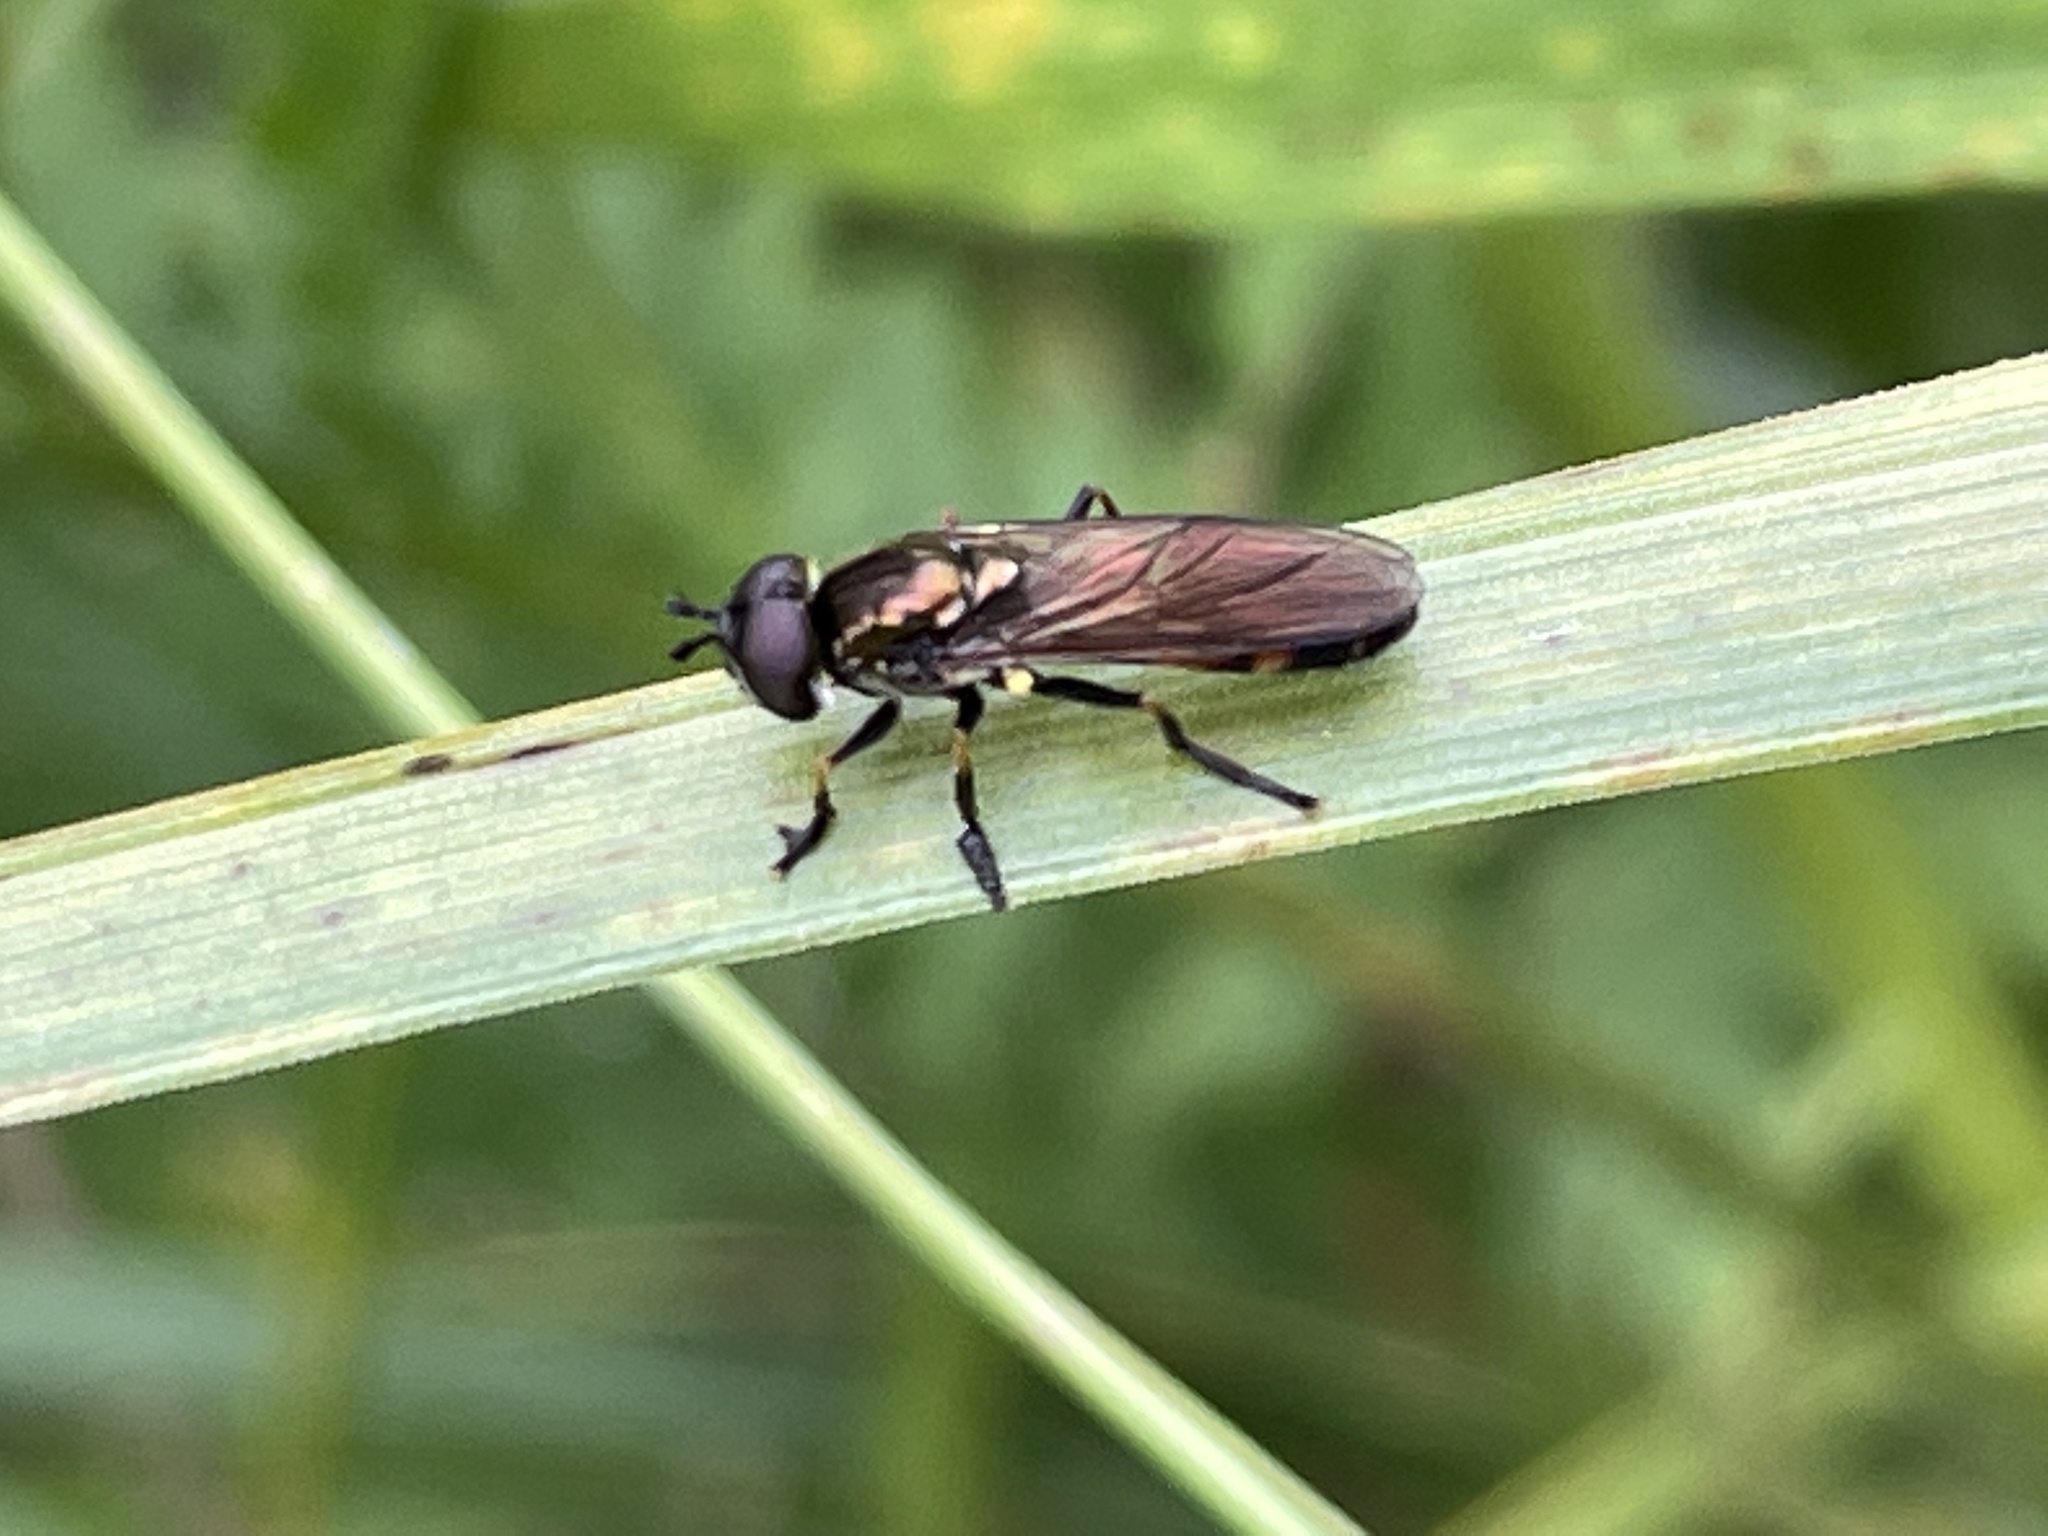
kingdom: Animalia
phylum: Arthropoda
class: Insecta
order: Diptera
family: Syrphidae
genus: Pyrophaena
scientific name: Pyrophaena granditarsa
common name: Hornhand sedgesitter
